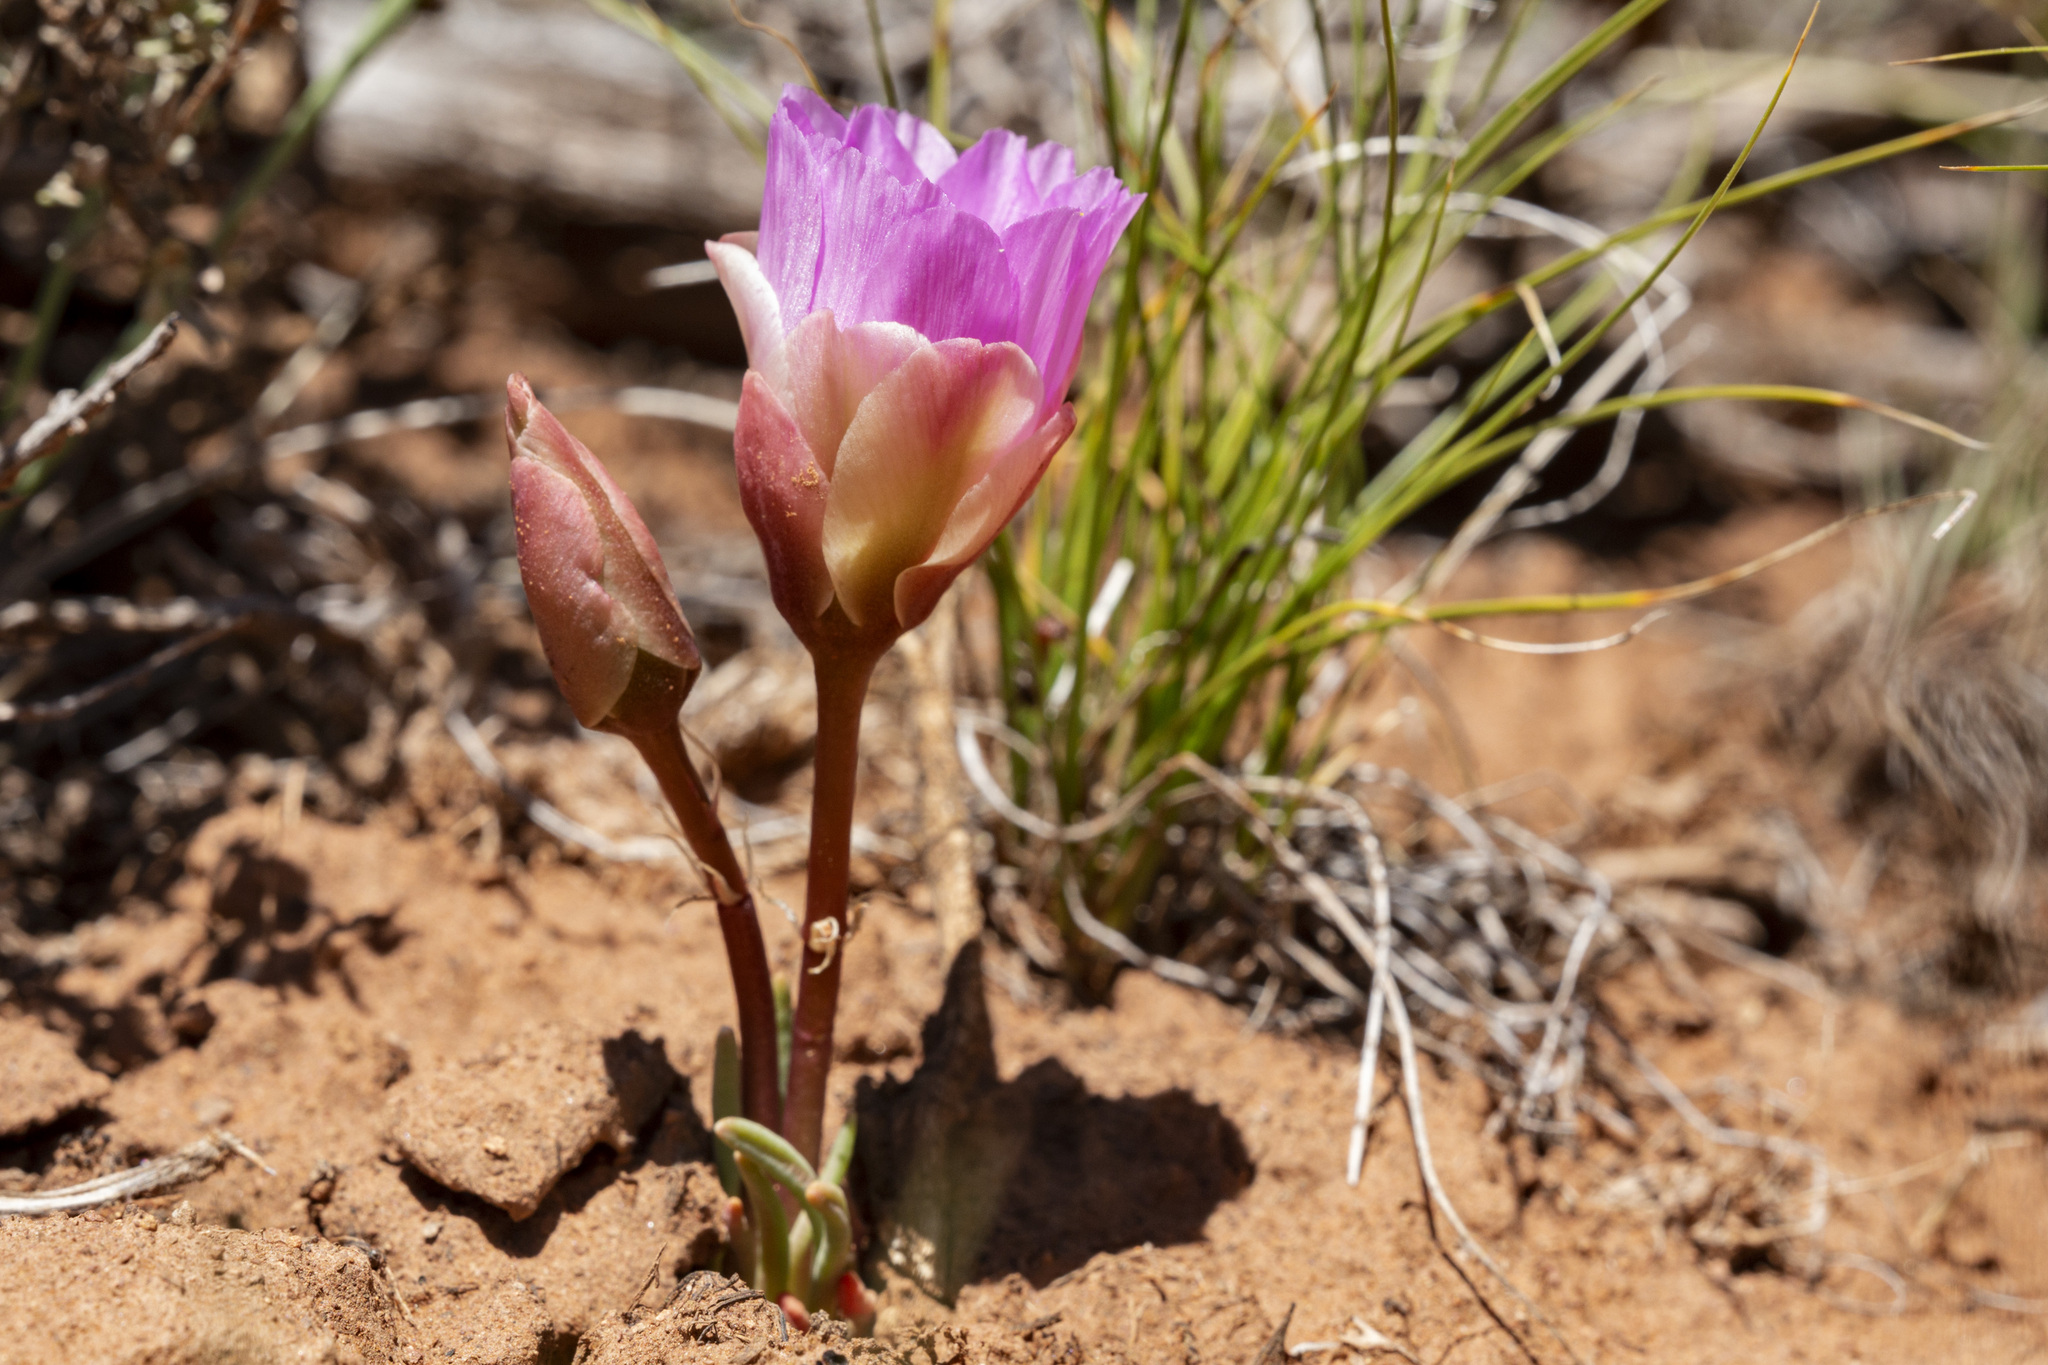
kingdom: Plantae
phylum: Tracheophyta
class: Magnoliopsida
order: Caryophyllales
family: Montiaceae
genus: Lewisia
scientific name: Lewisia rediviva
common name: Bitter-root
